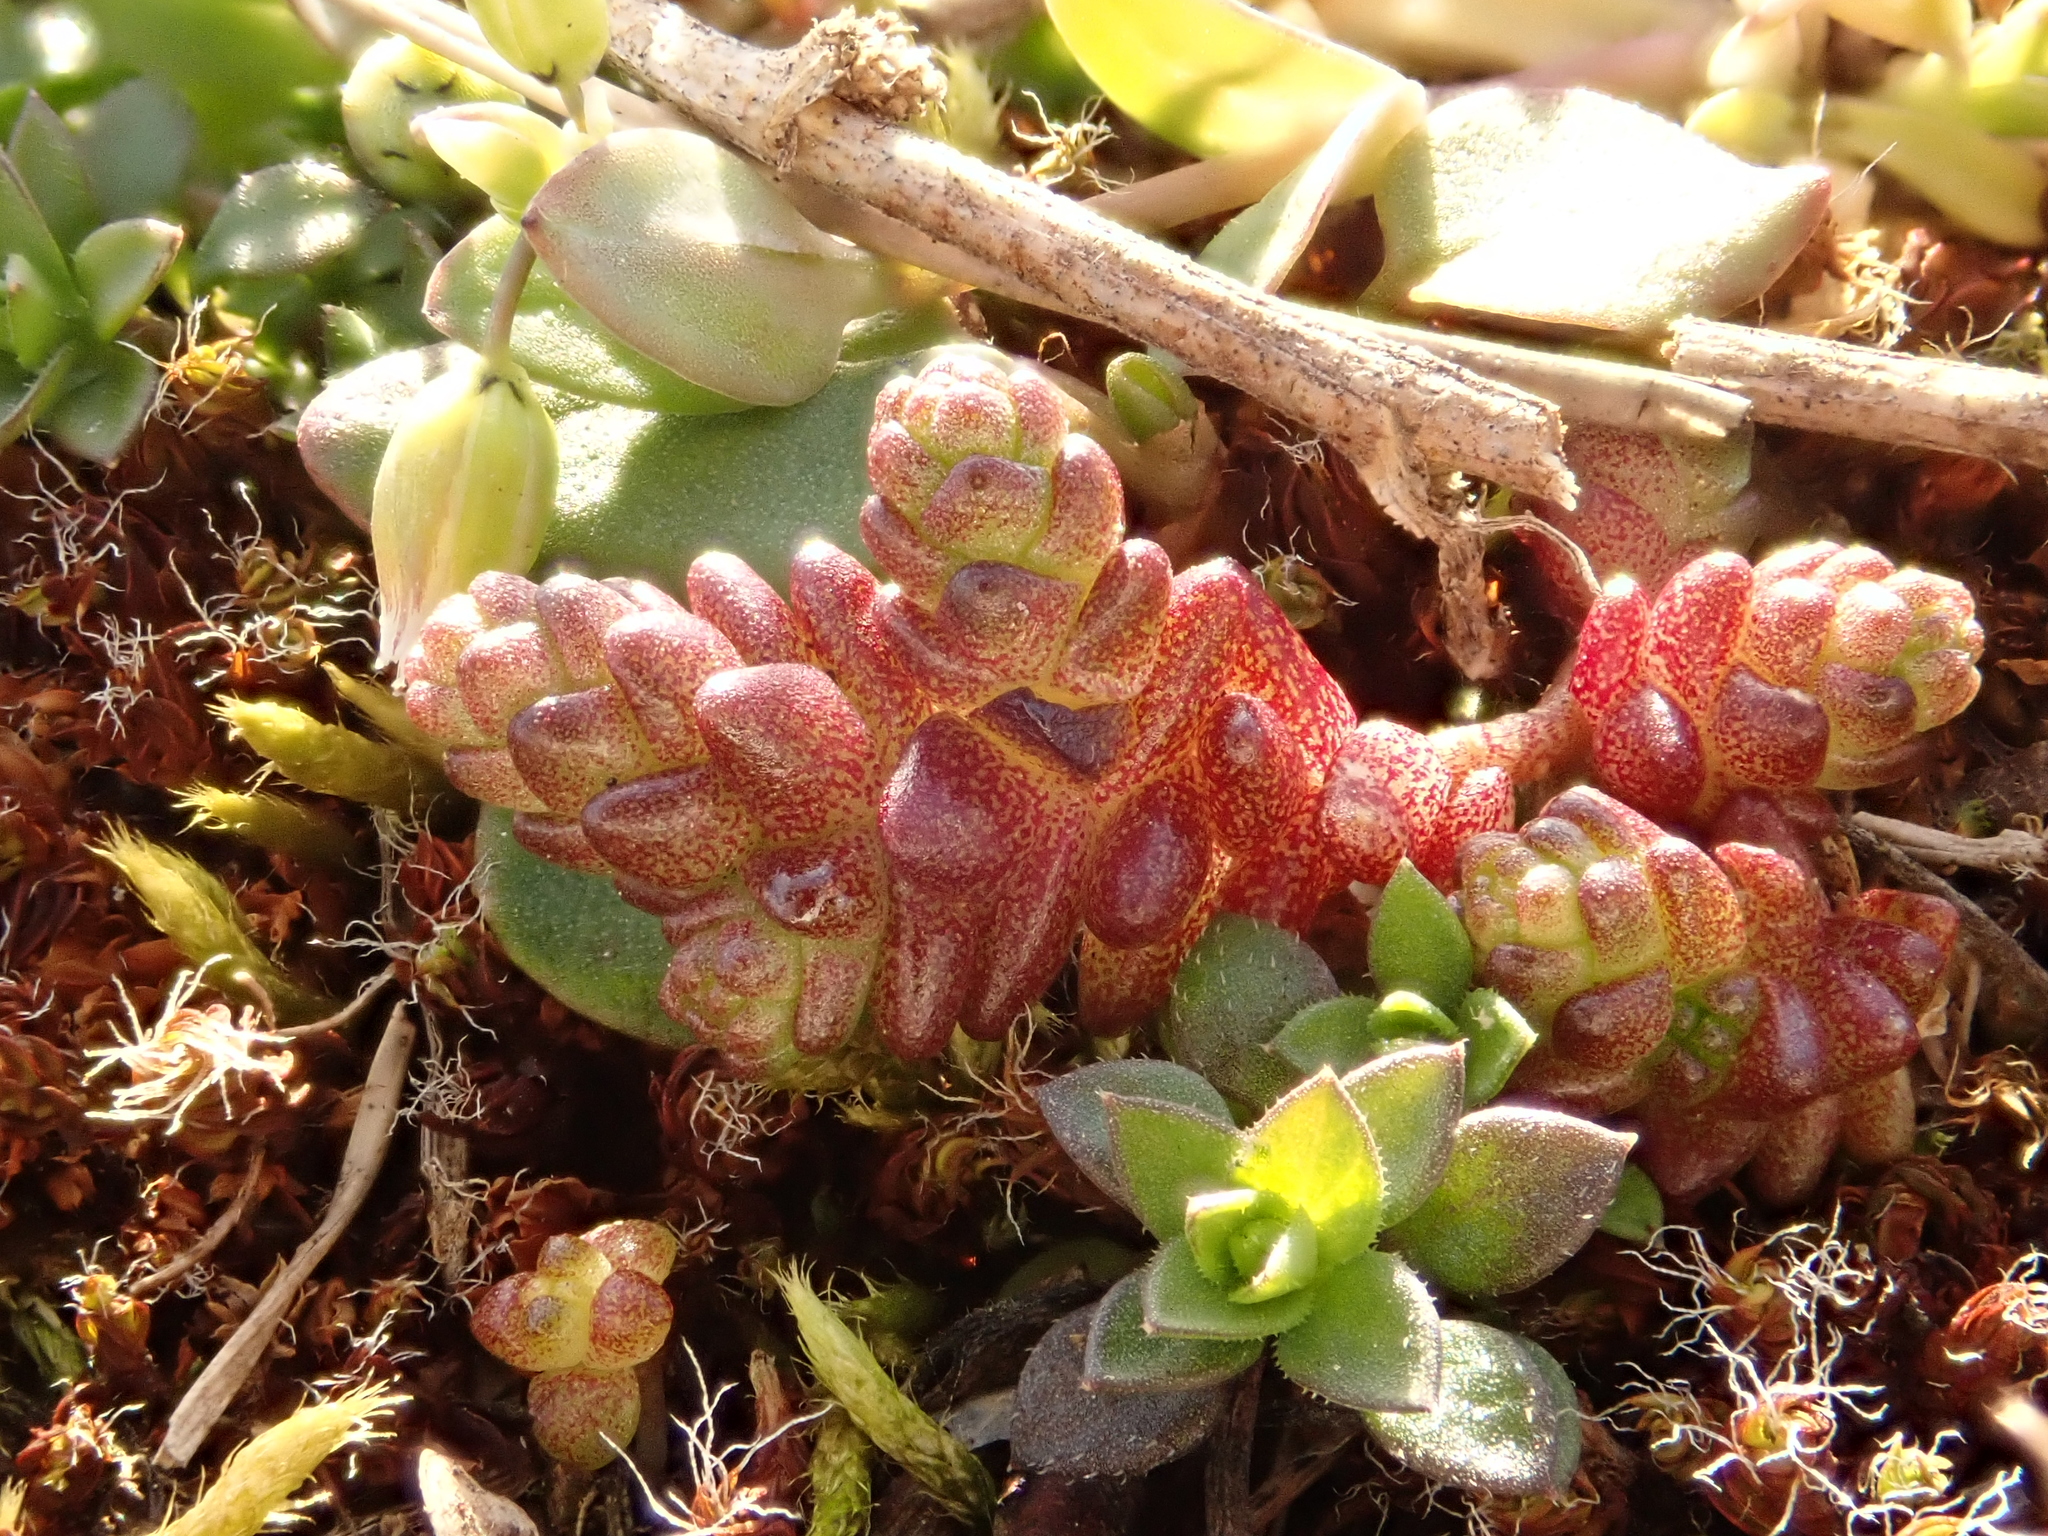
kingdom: Plantae
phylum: Tracheophyta
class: Magnoliopsida
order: Saxifragales
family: Crassulaceae
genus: Sedum
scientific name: Sedum acre
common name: Biting stonecrop
